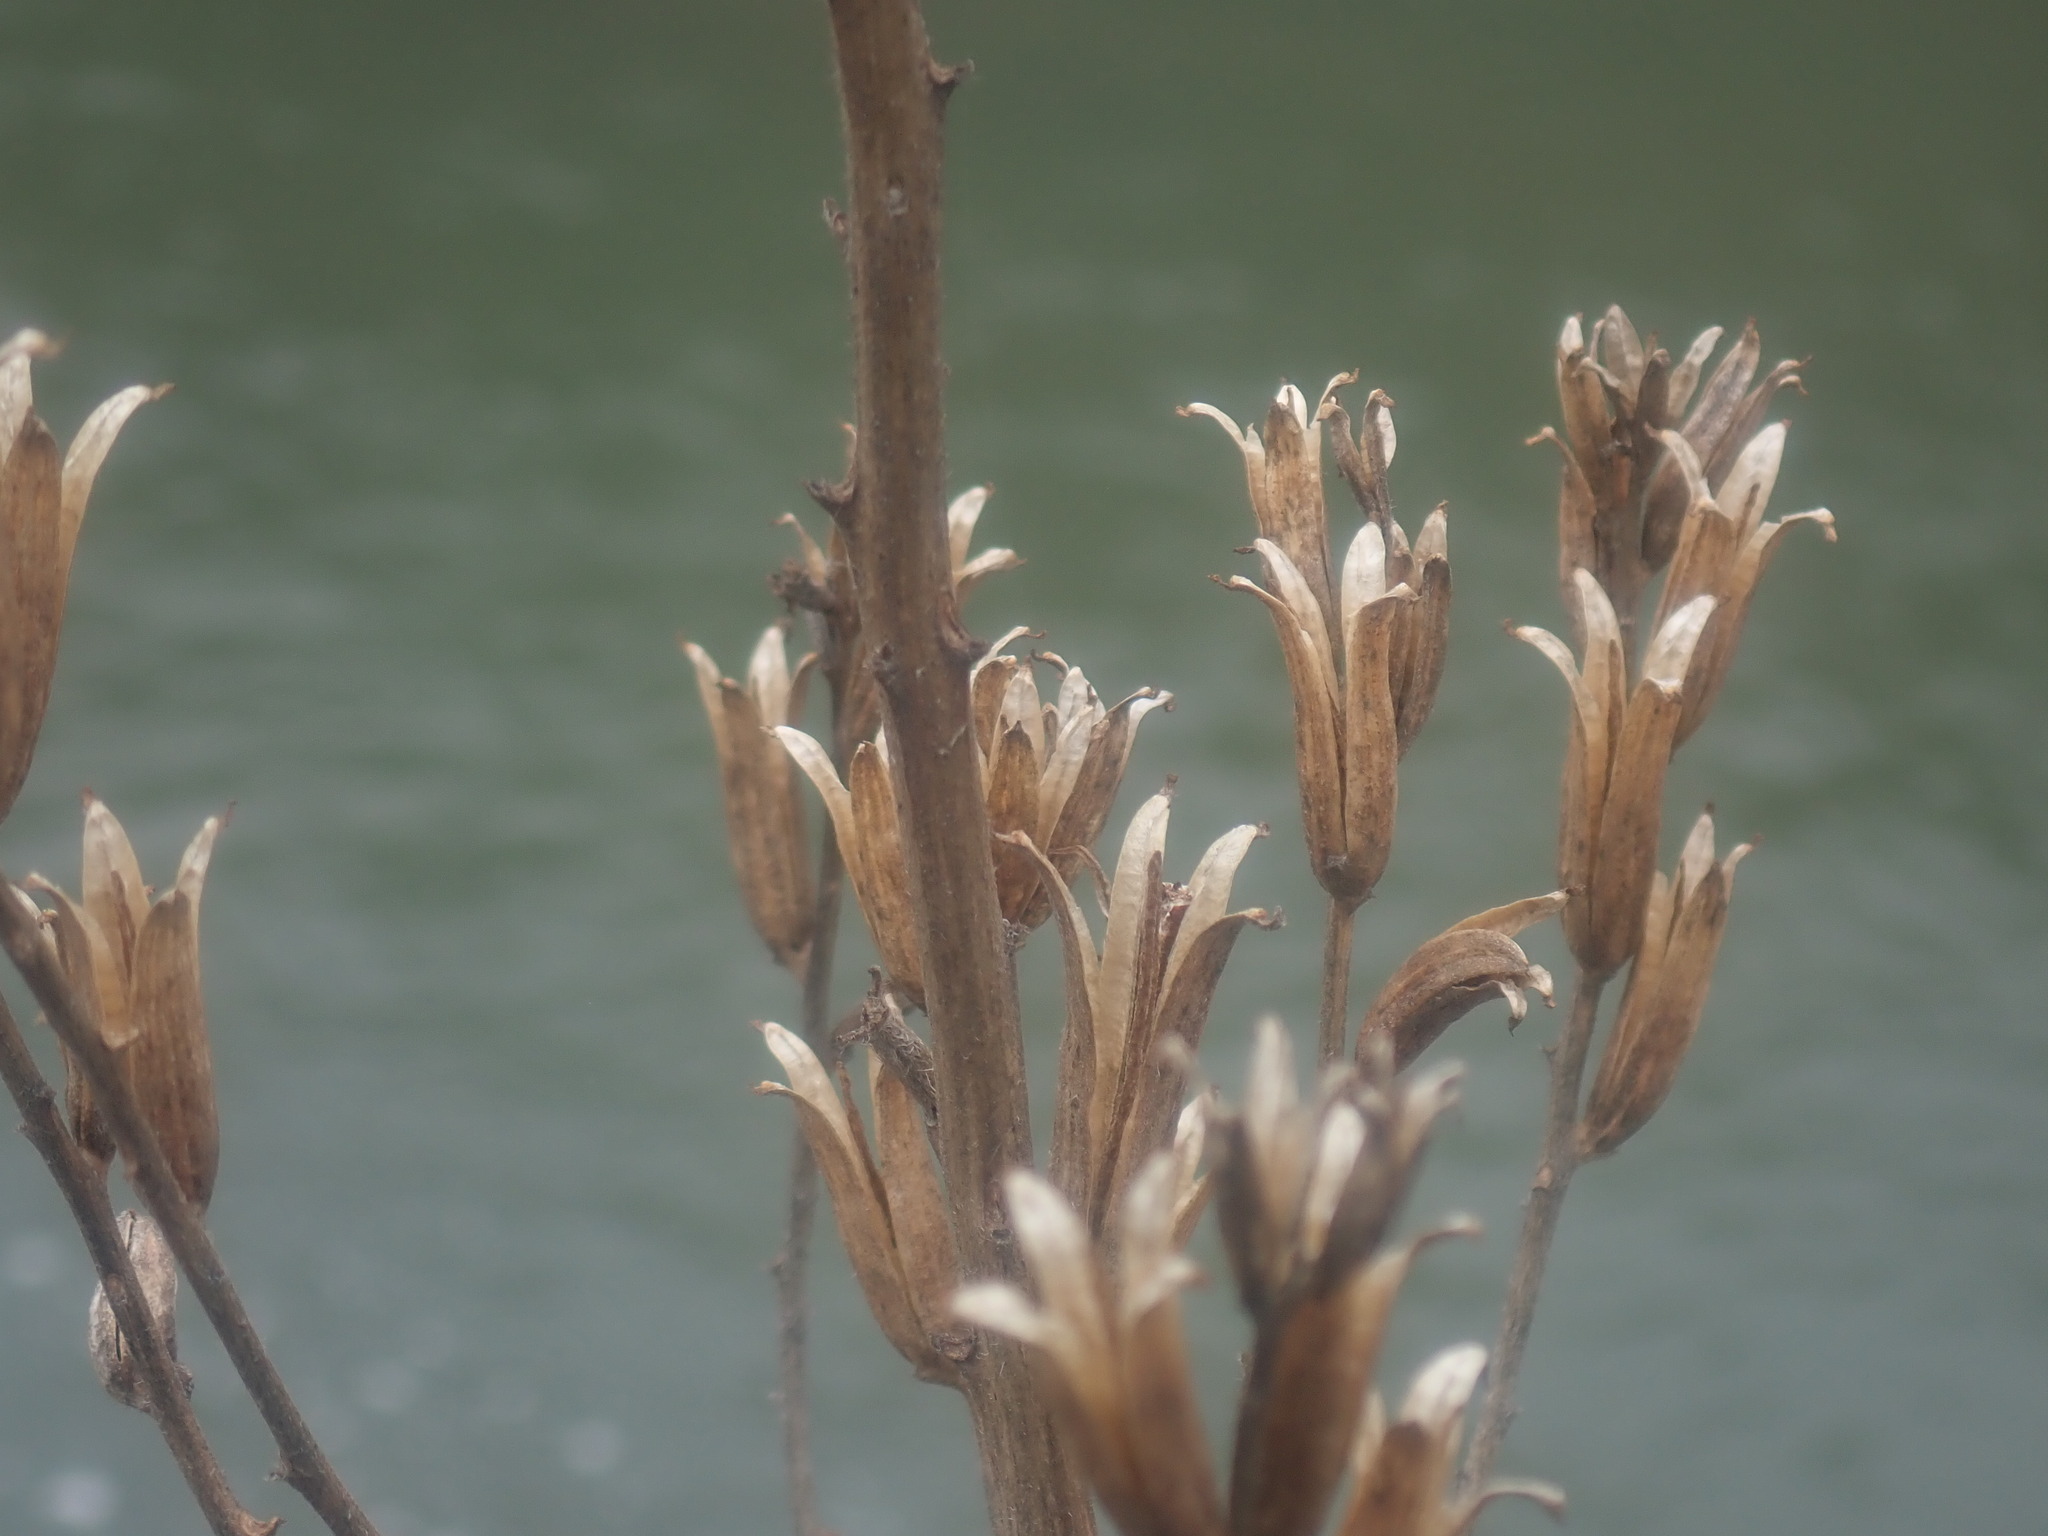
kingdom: Plantae
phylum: Tracheophyta
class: Magnoliopsida
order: Myrtales
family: Onagraceae
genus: Oenothera
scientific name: Oenothera biennis
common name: Common evening-primrose
